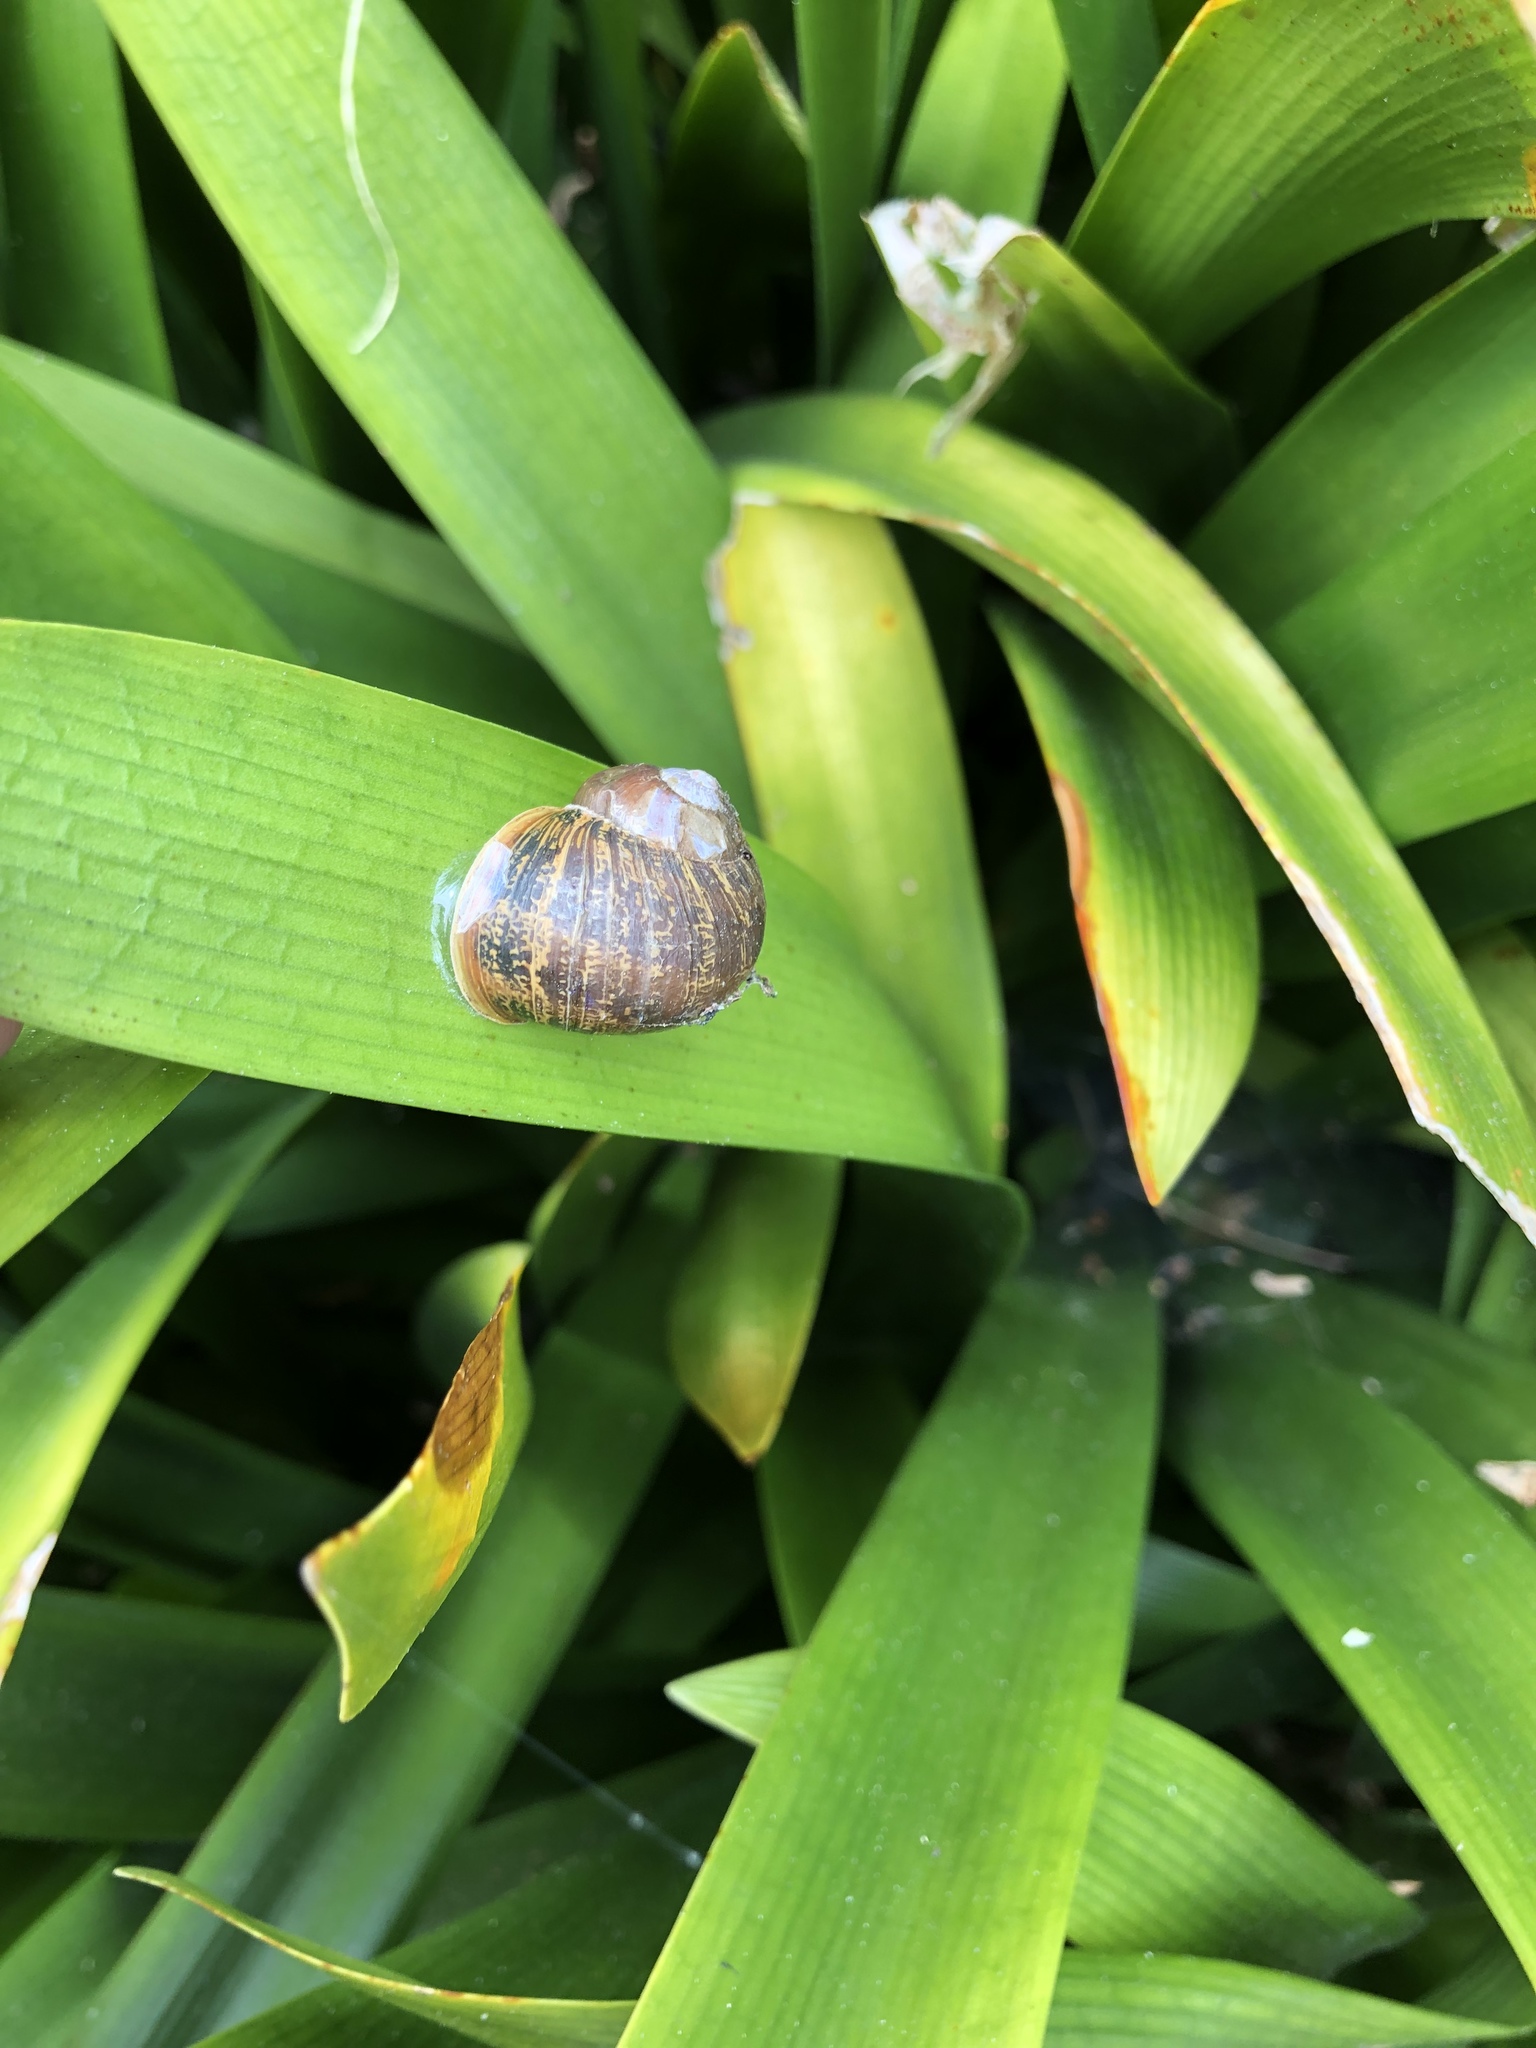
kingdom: Animalia
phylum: Mollusca
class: Gastropoda
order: Stylommatophora
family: Helicidae
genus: Cornu
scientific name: Cornu aspersum
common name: Brown garden snail
